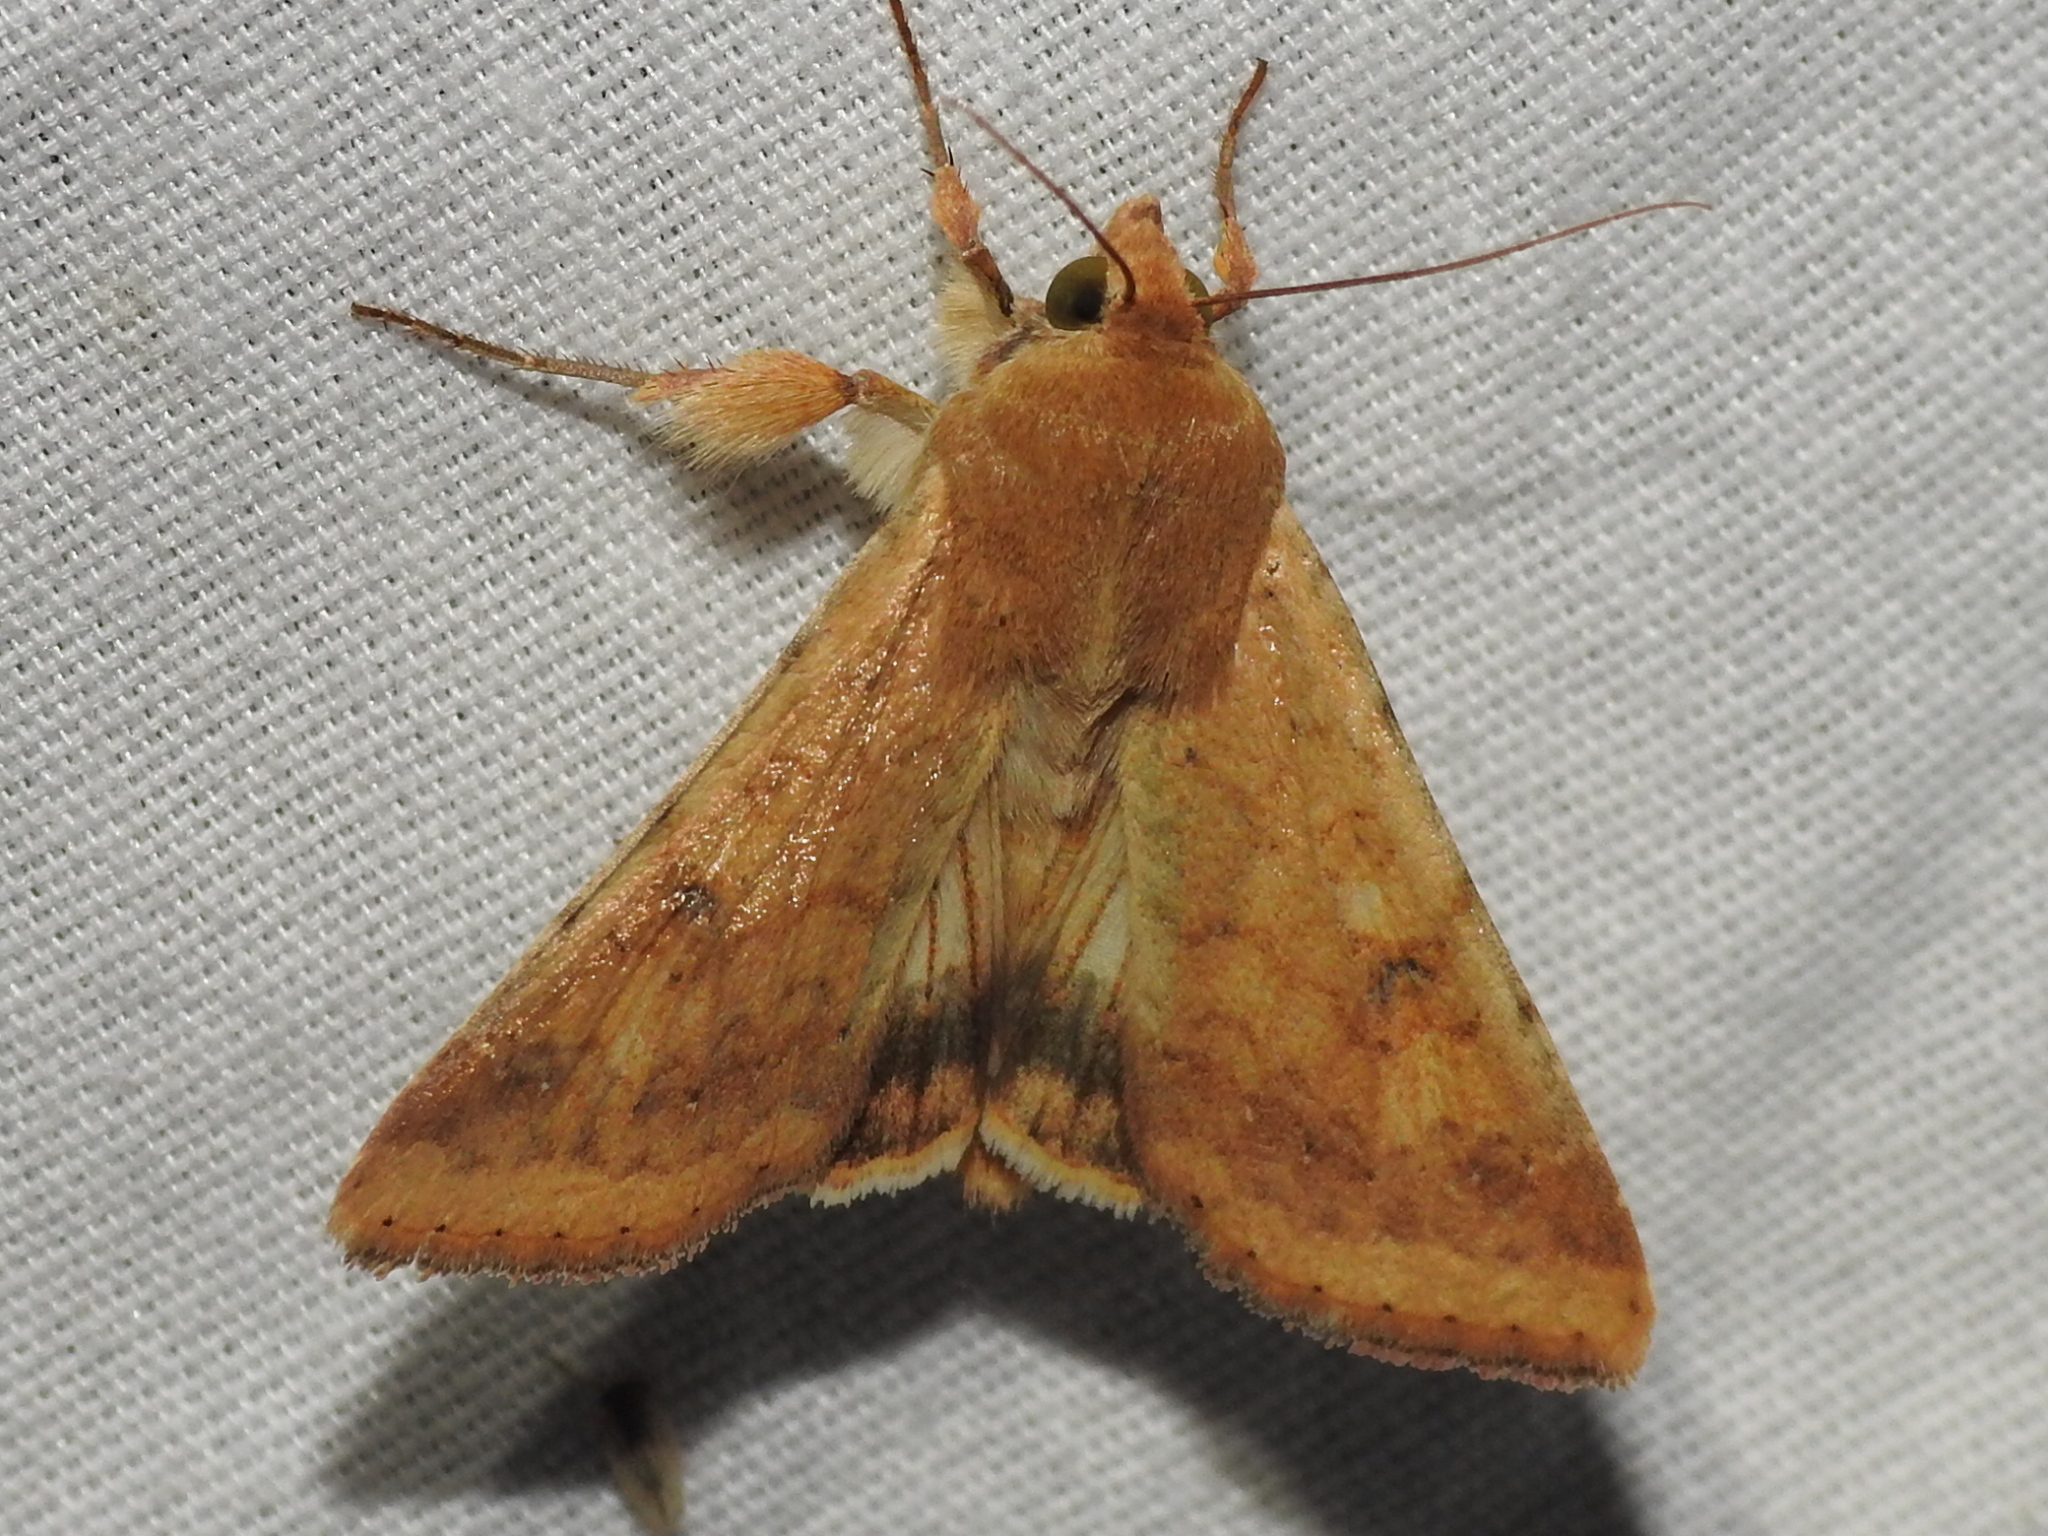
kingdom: Animalia
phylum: Arthropoda
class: Insecta
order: Lepidoptera
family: Noctuidae
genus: Helicoverpa
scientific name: Helicoverpa zea
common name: Bollworm
